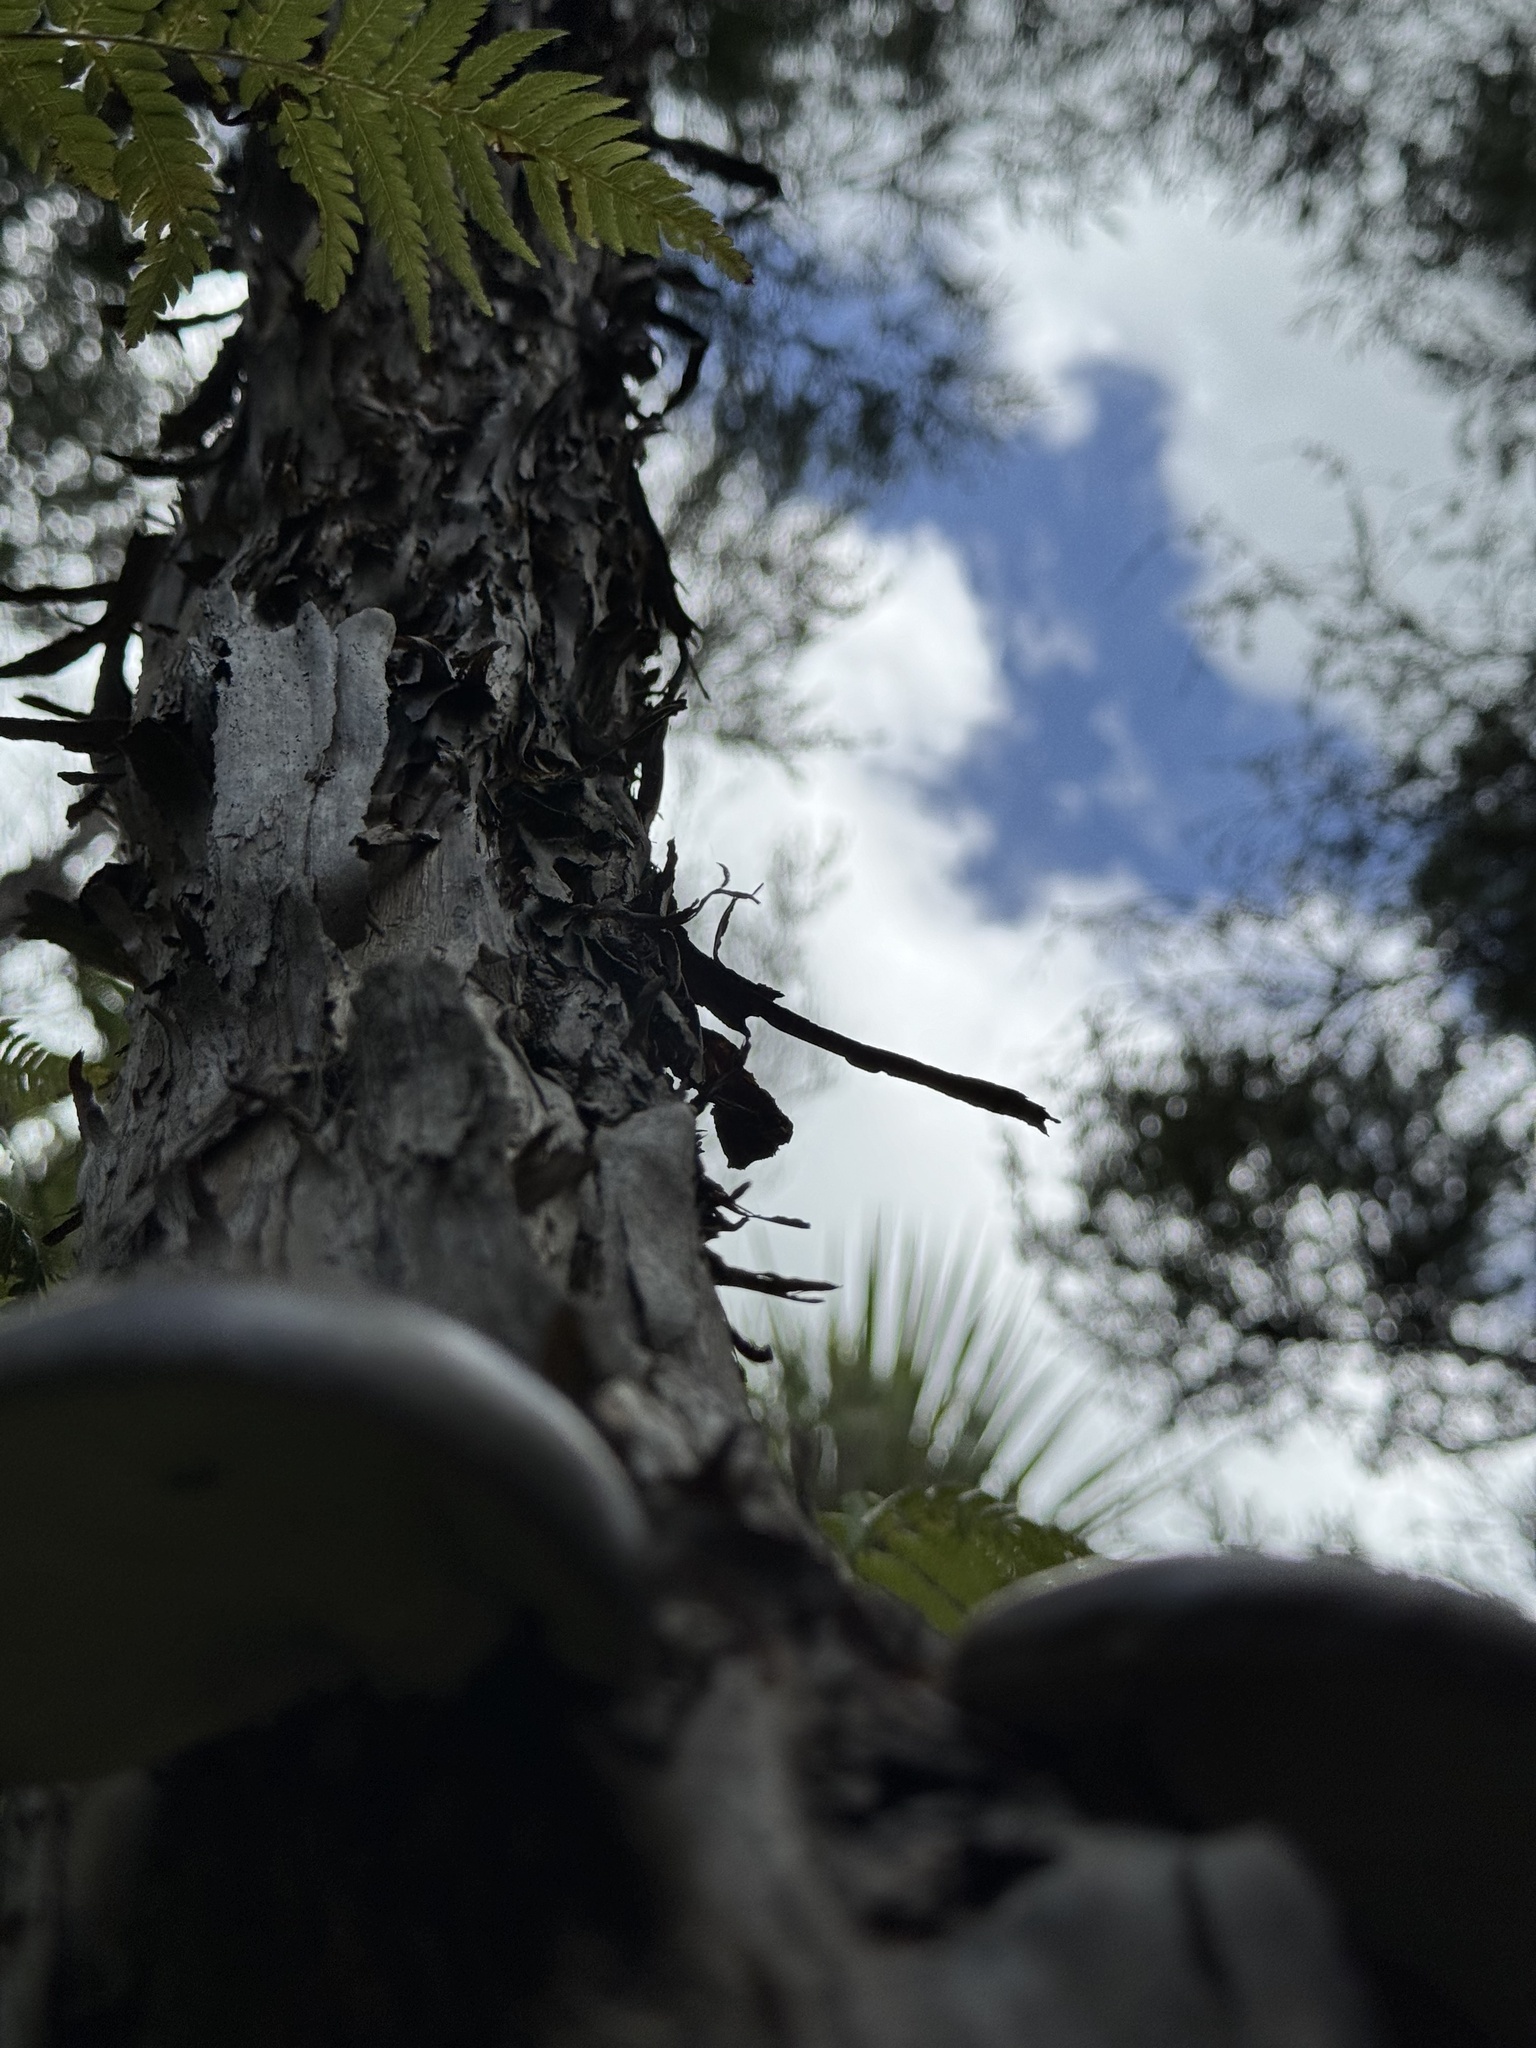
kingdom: Fungi
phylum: Basidiomycota
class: Agaricomycetes
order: Agaricales
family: Pleurotaceae
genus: Pleurotus
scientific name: Pleurotus australis
